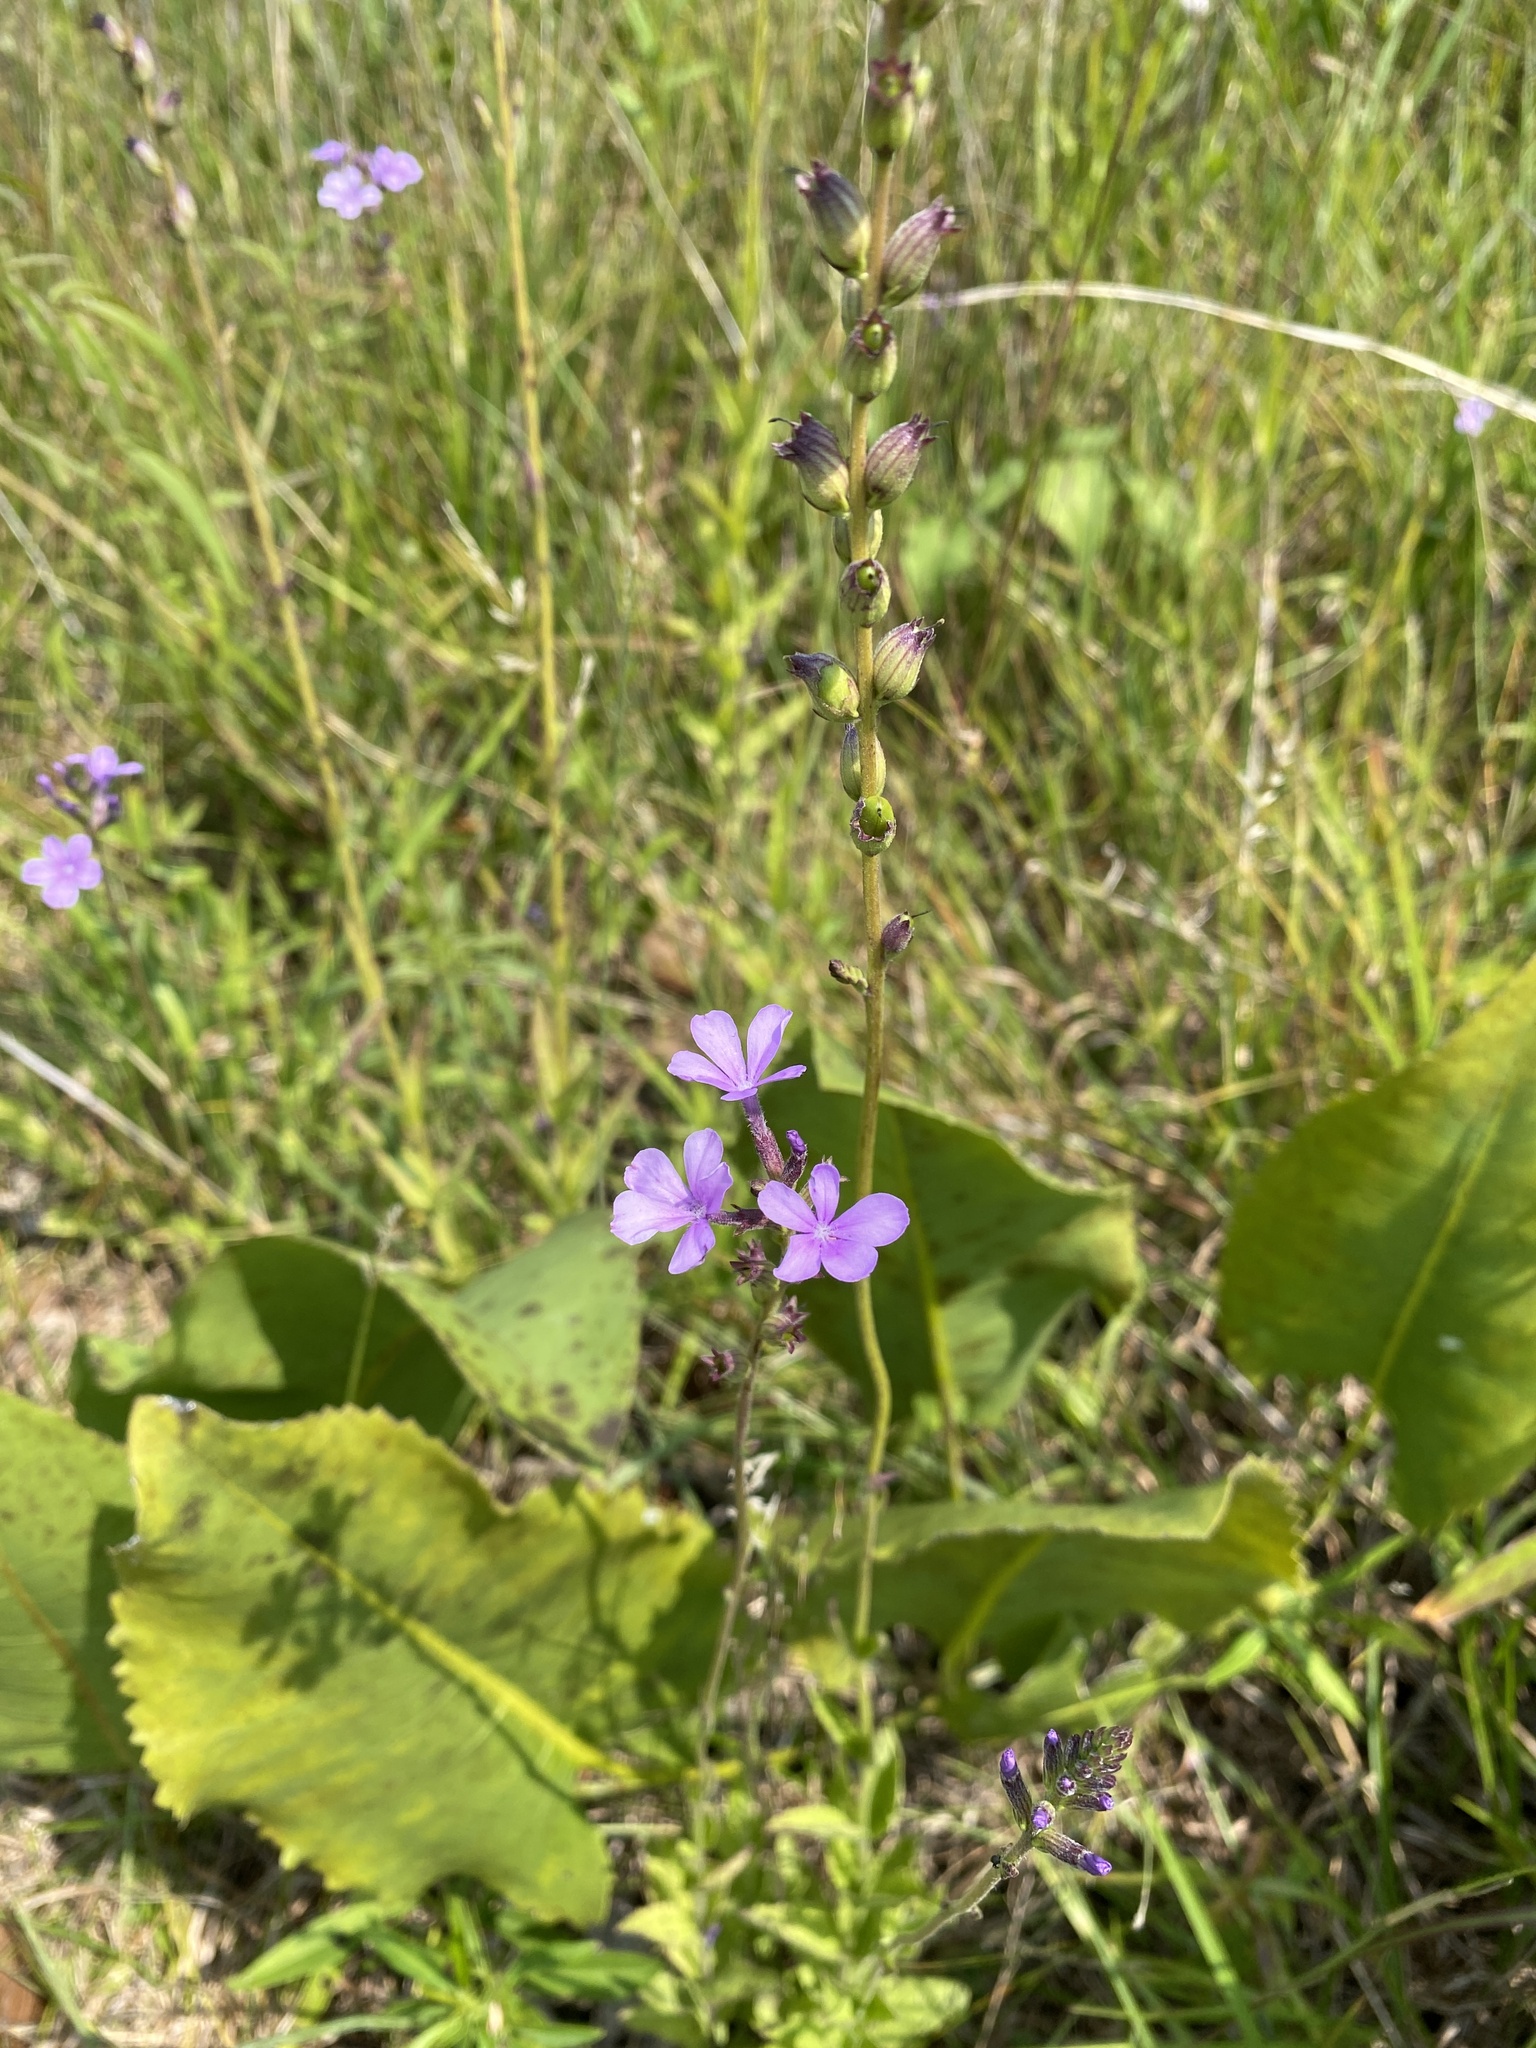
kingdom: Plantae
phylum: Tracheophyta
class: Magnoliopsida
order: Lamiales
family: Orobanchaceae
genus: Buchnera
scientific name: Buchnera americana
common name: American bluehearts
